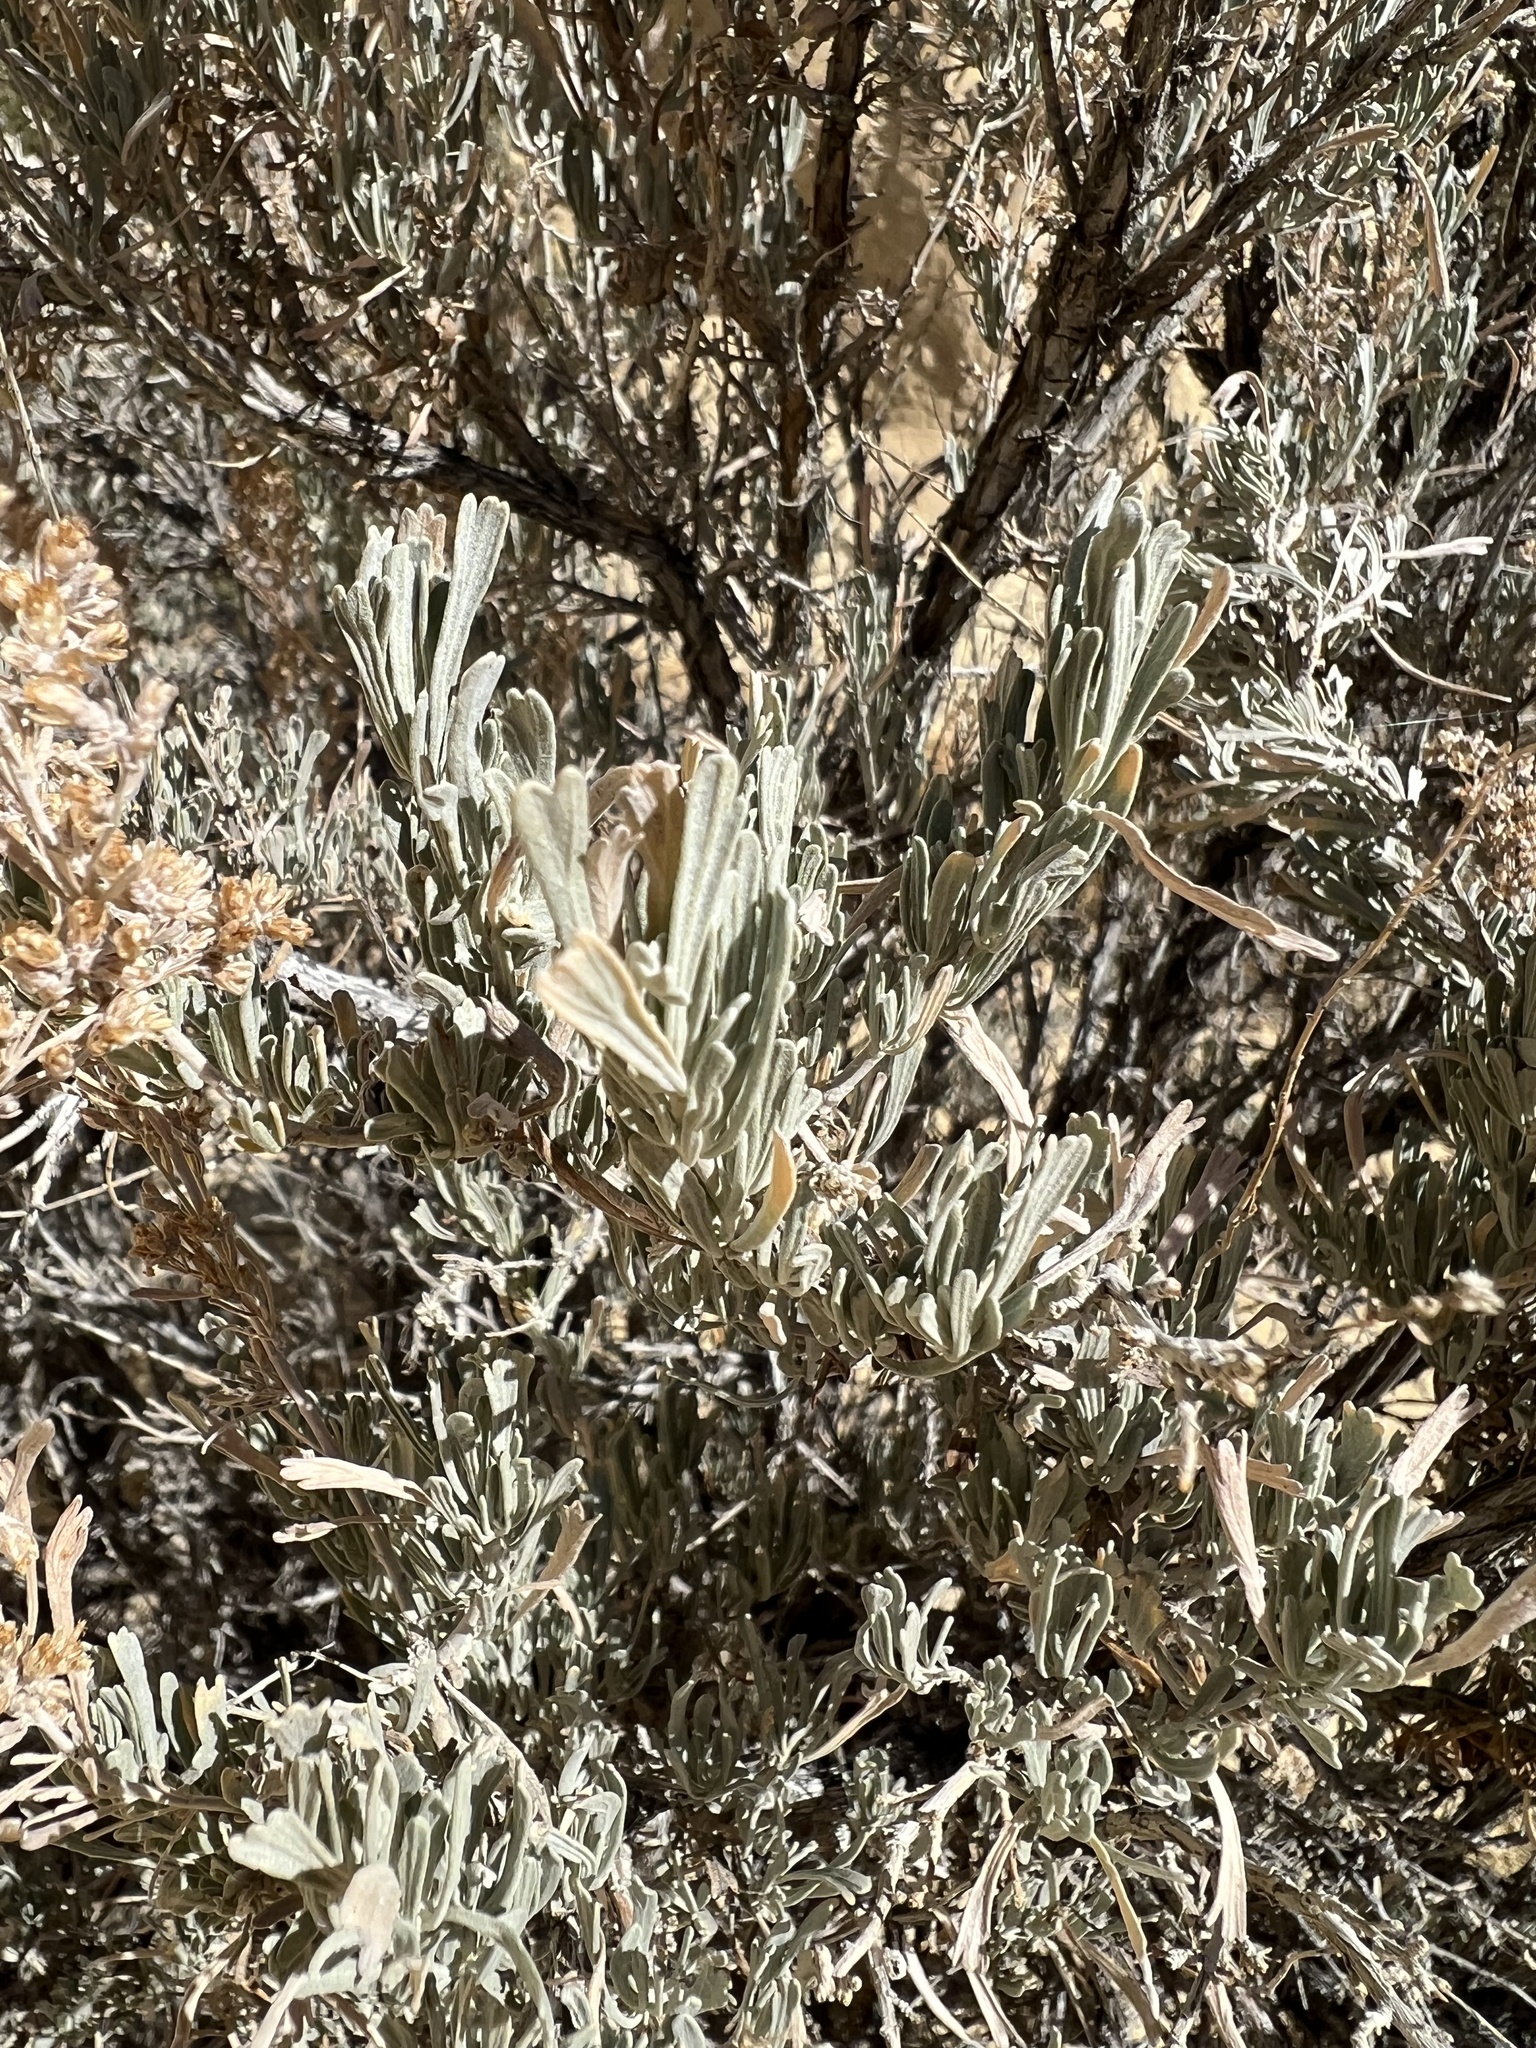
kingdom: Plantae
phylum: Tracheophyta
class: Magnoliopsida
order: Asterales
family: Asteraceae
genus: Artemisia
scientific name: Artemisia tridentata
